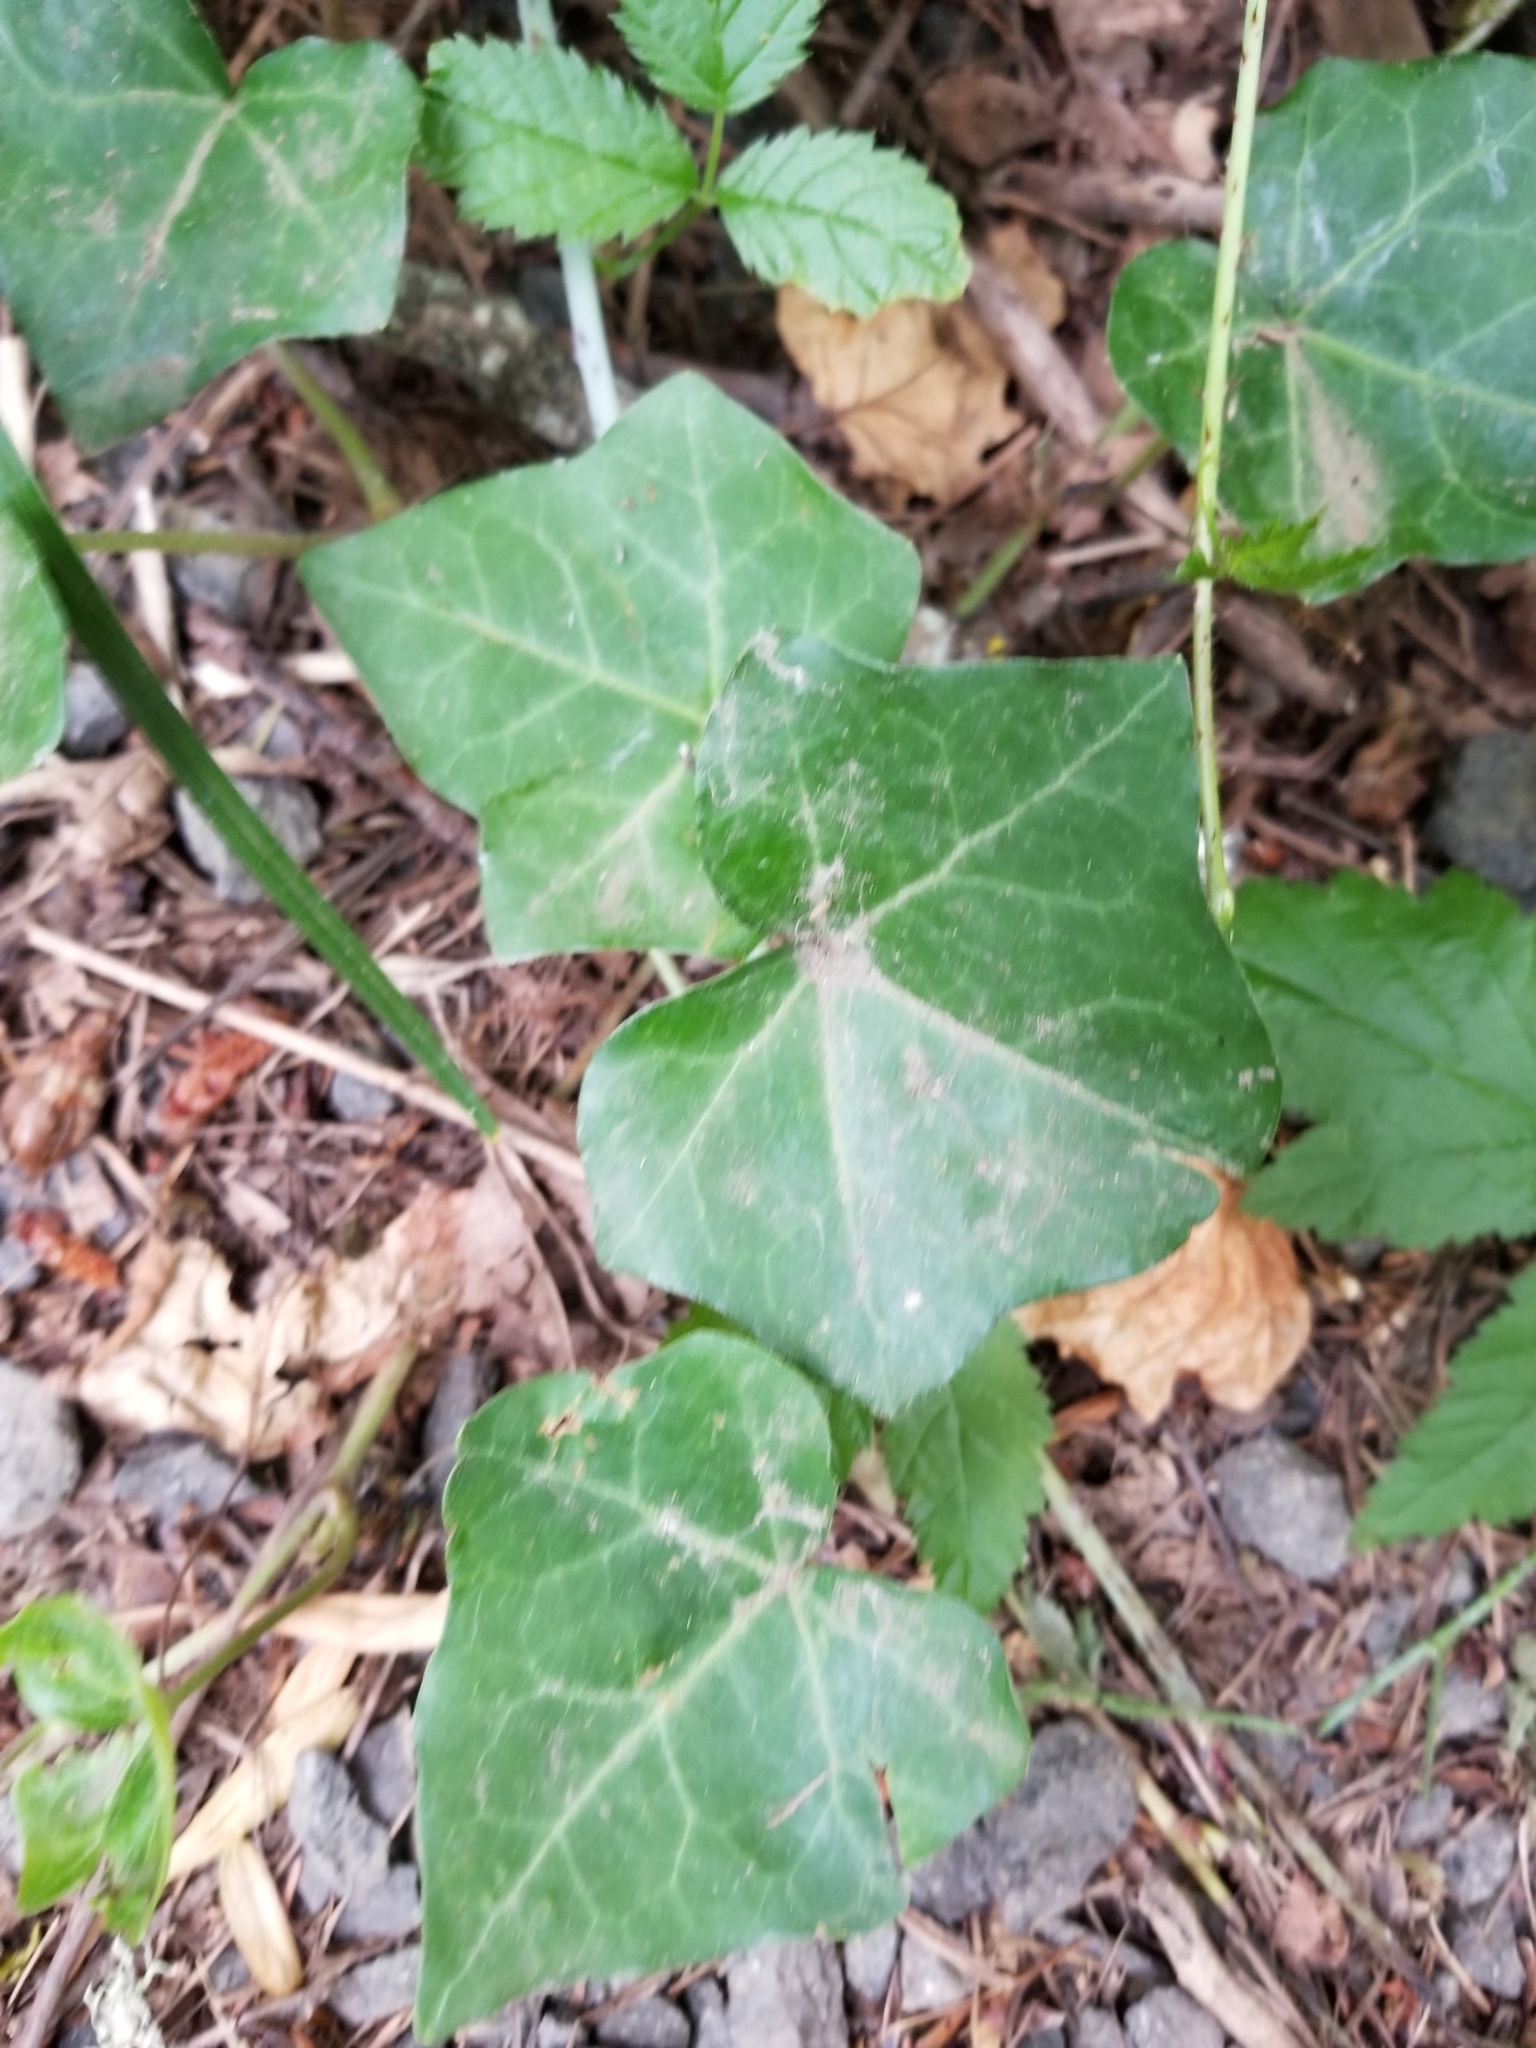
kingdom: Plantae
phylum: Tracheophyta
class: Magnoliopsida
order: Apiales
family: Araliaceae
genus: Hedera
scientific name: Hedera helix
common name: Ivy
